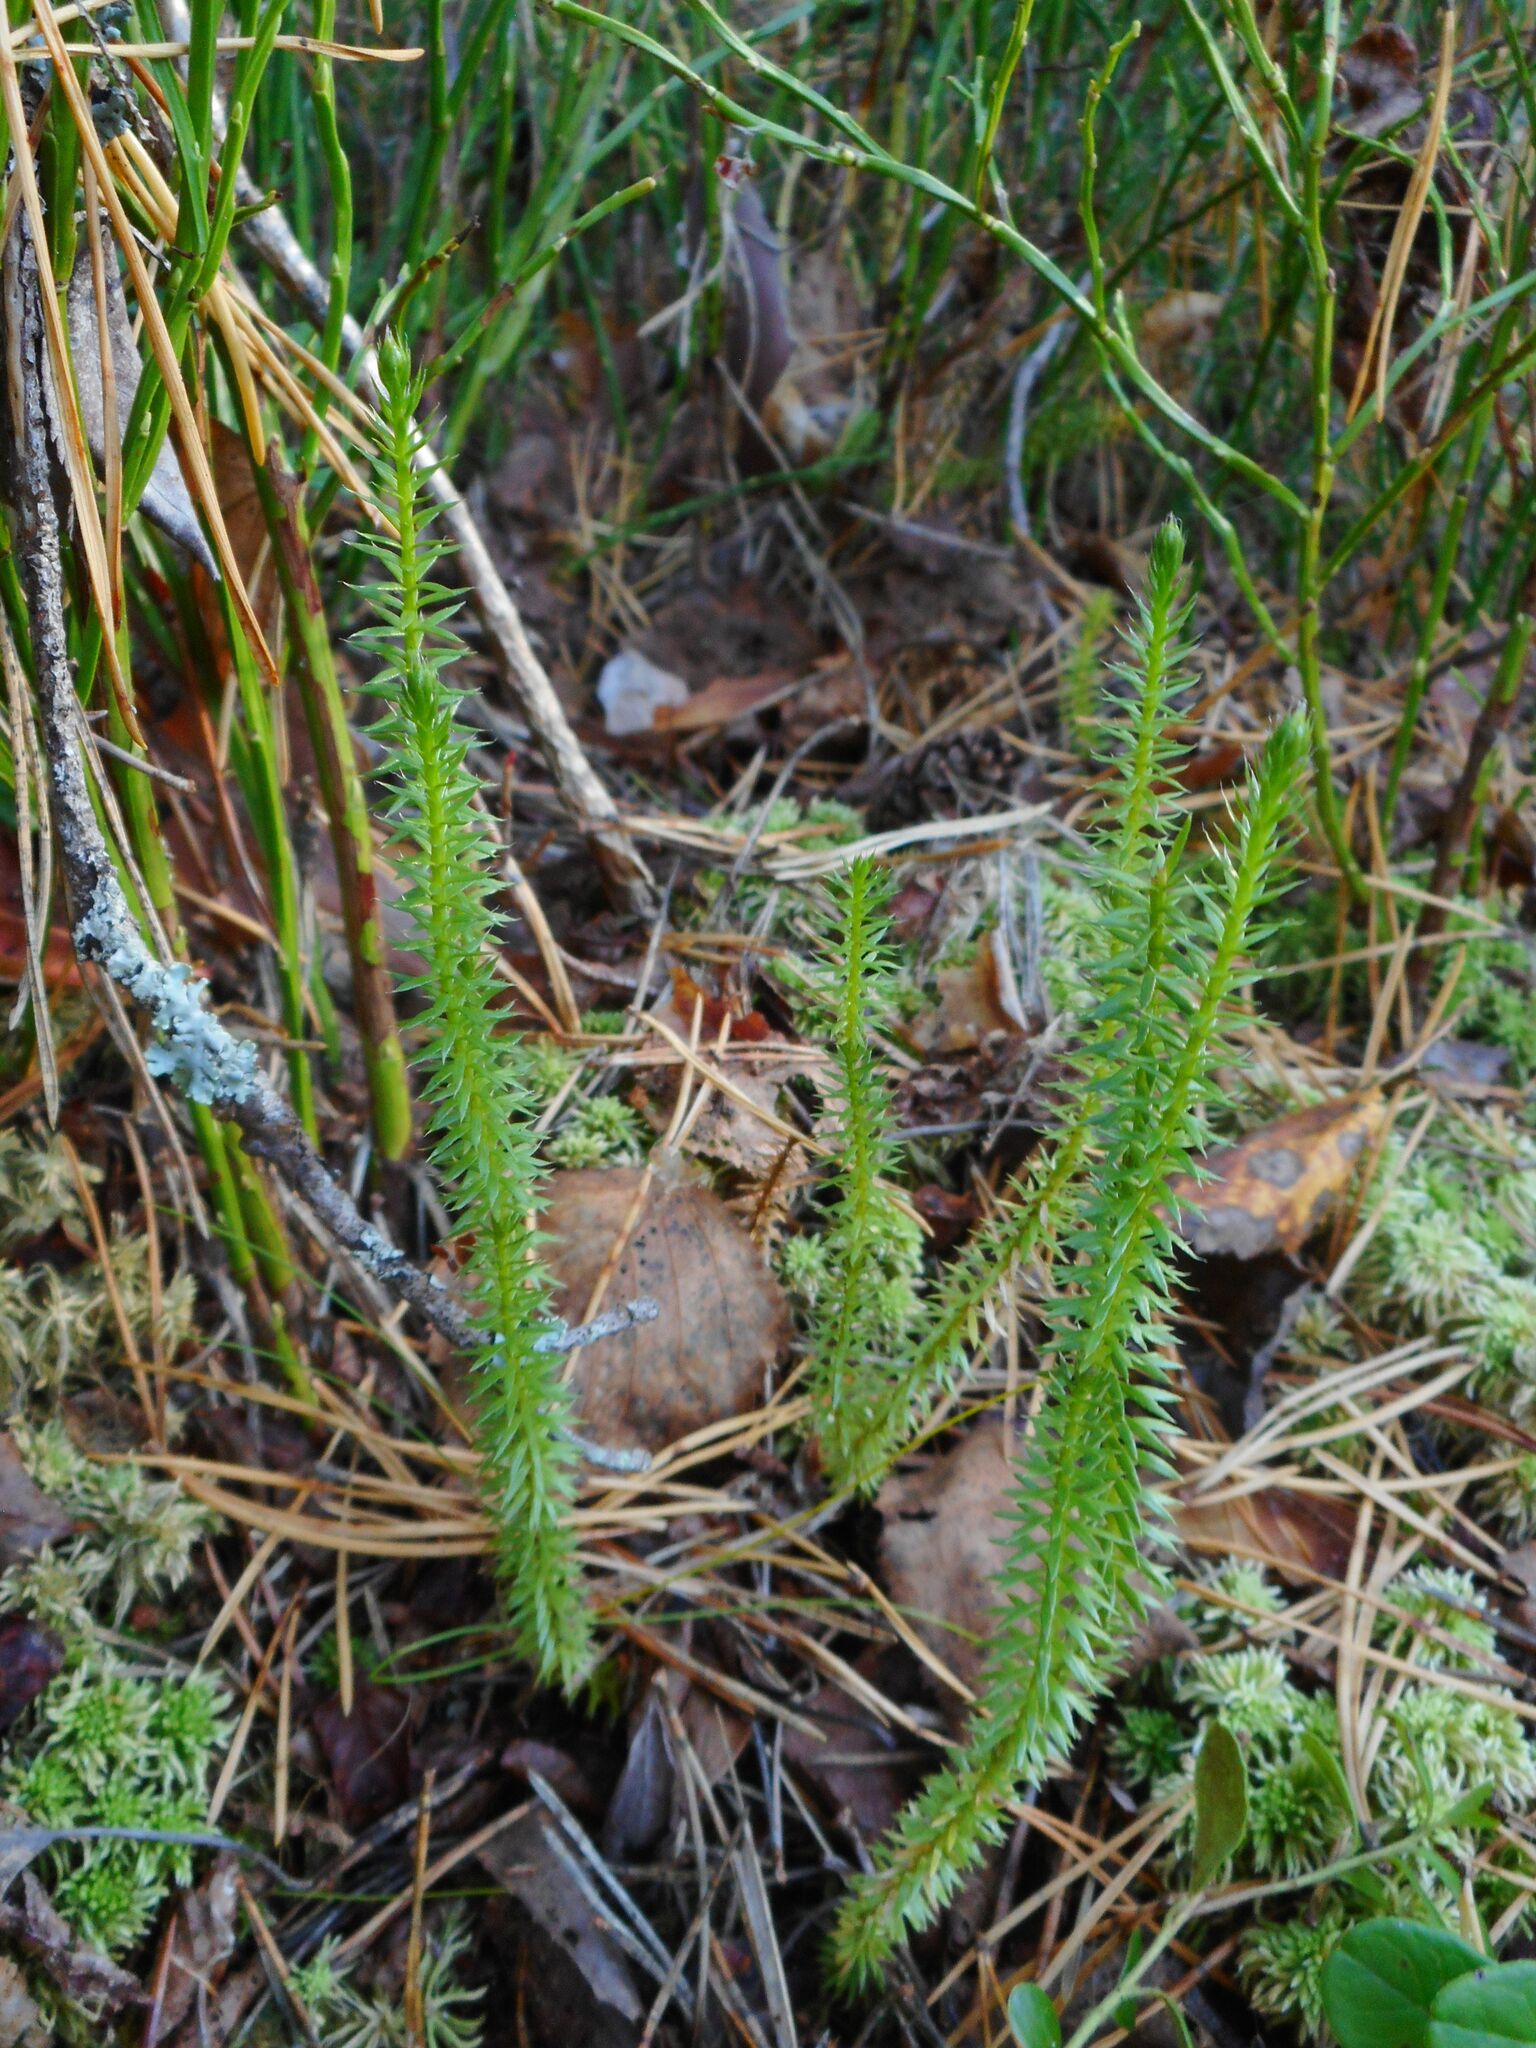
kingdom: Plantae
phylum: Tracheophyta
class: Lycopodiopsida
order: Lycopodiales
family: Lycopodiaceae
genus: Spinulum
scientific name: Spinulum annotinum
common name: Interrupted club-moss
